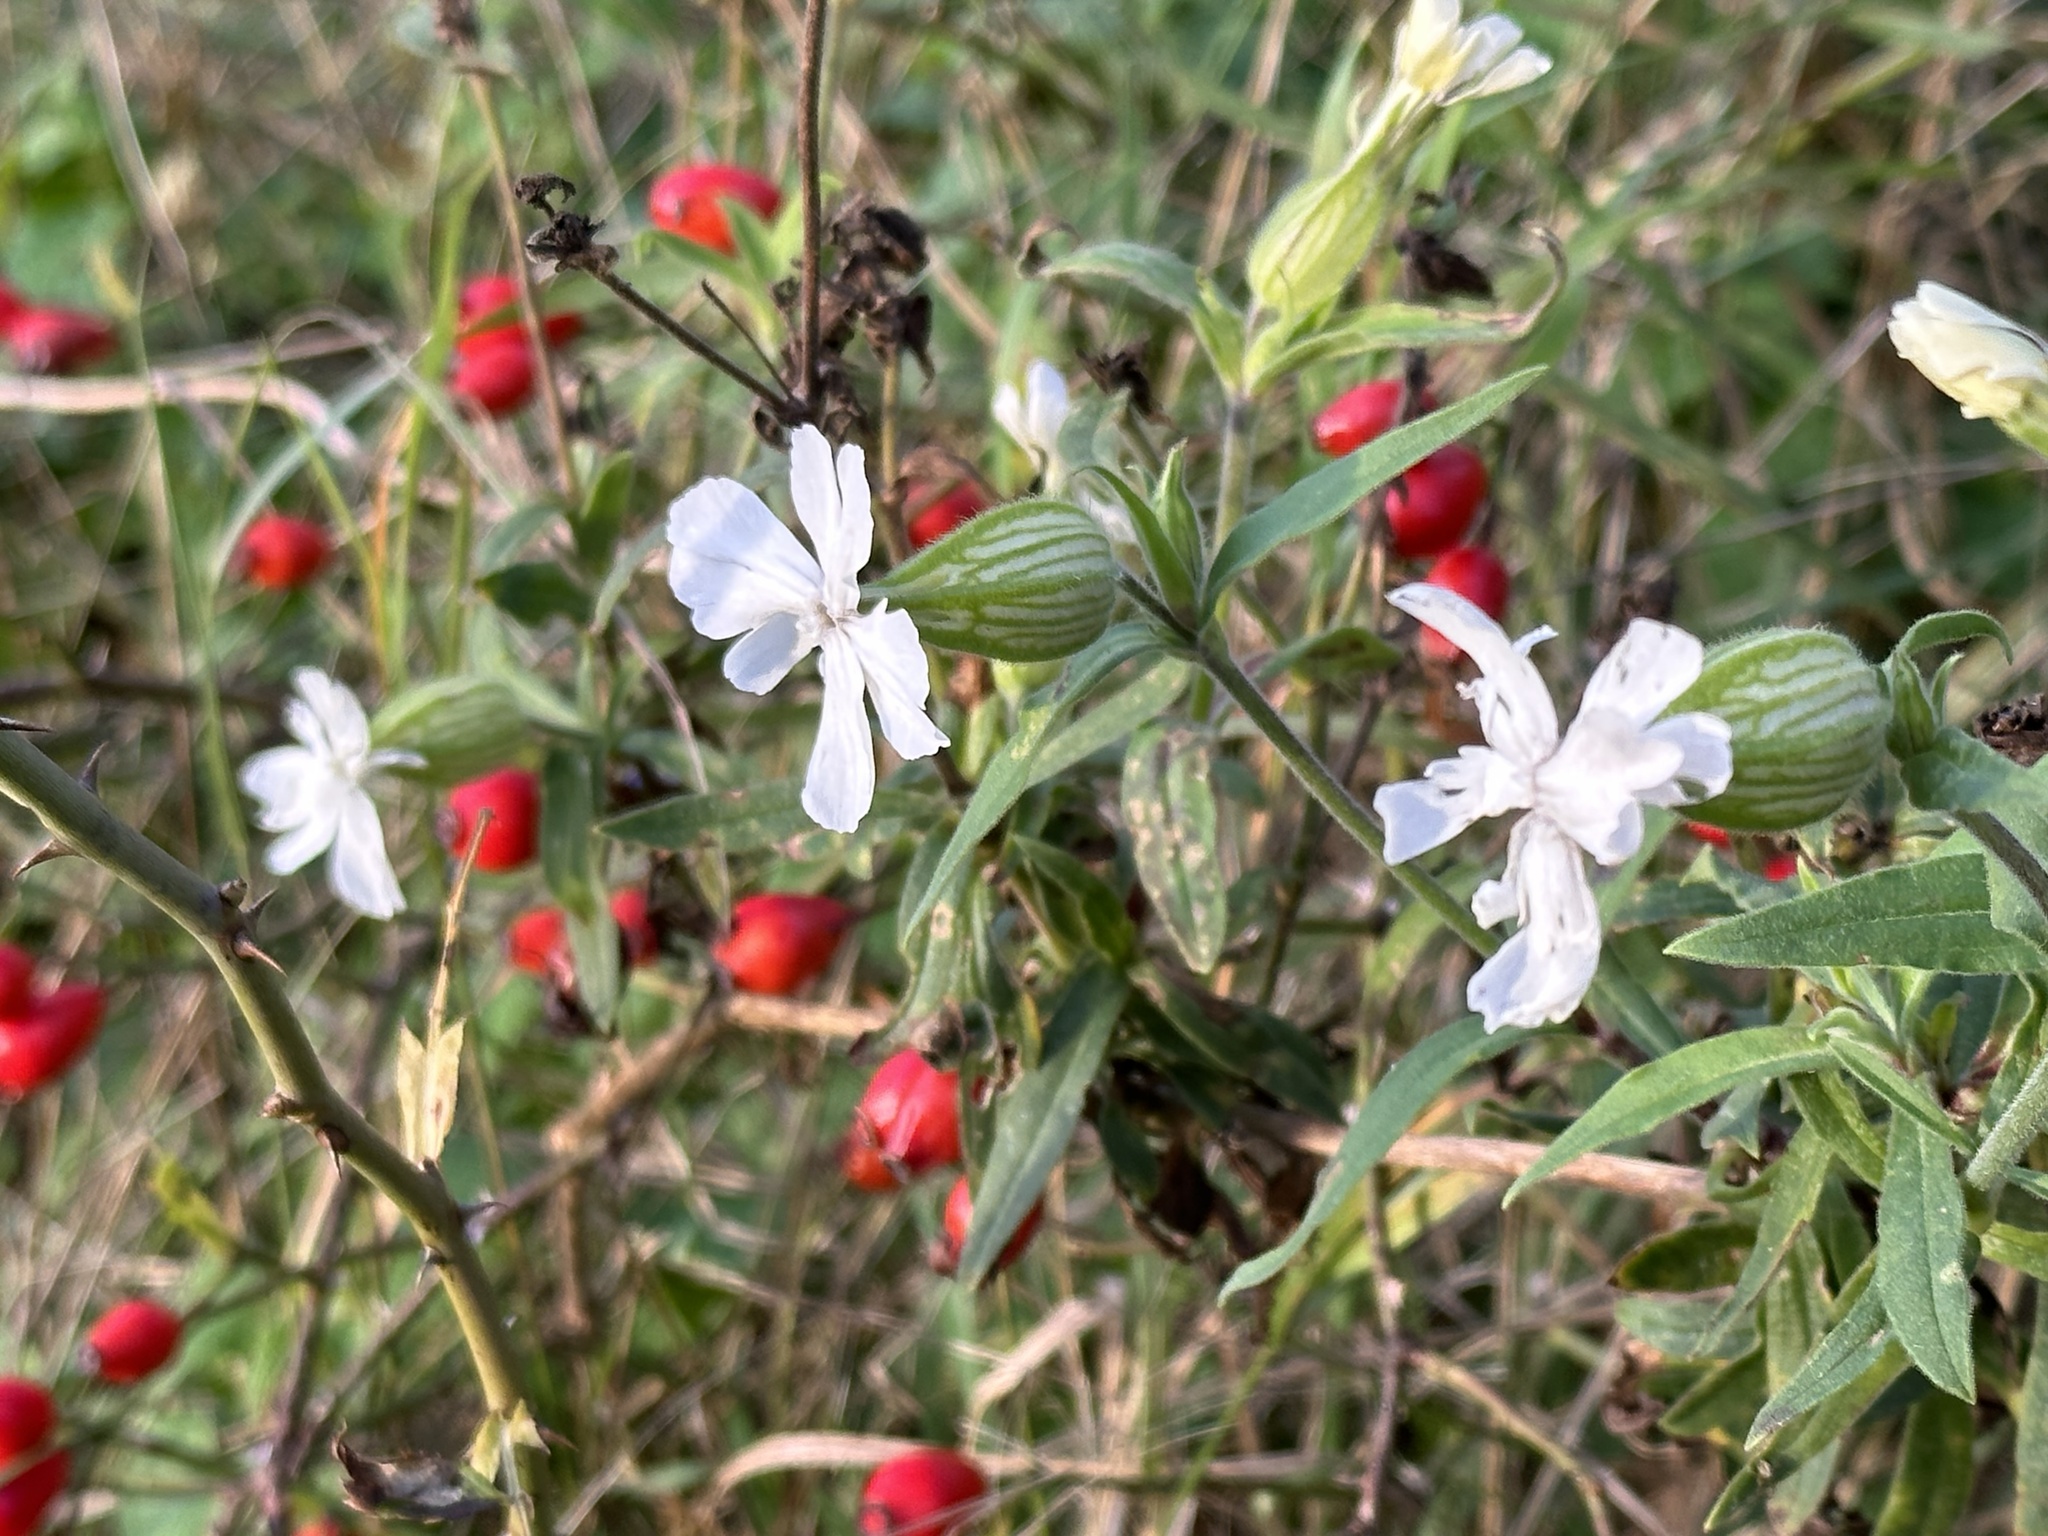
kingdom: Plantae
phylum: Tracheophyta
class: Magnoliopsida
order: Caryophyllales
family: Caryophyllaceae
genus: Silene
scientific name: Silene latifolia
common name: White campion
